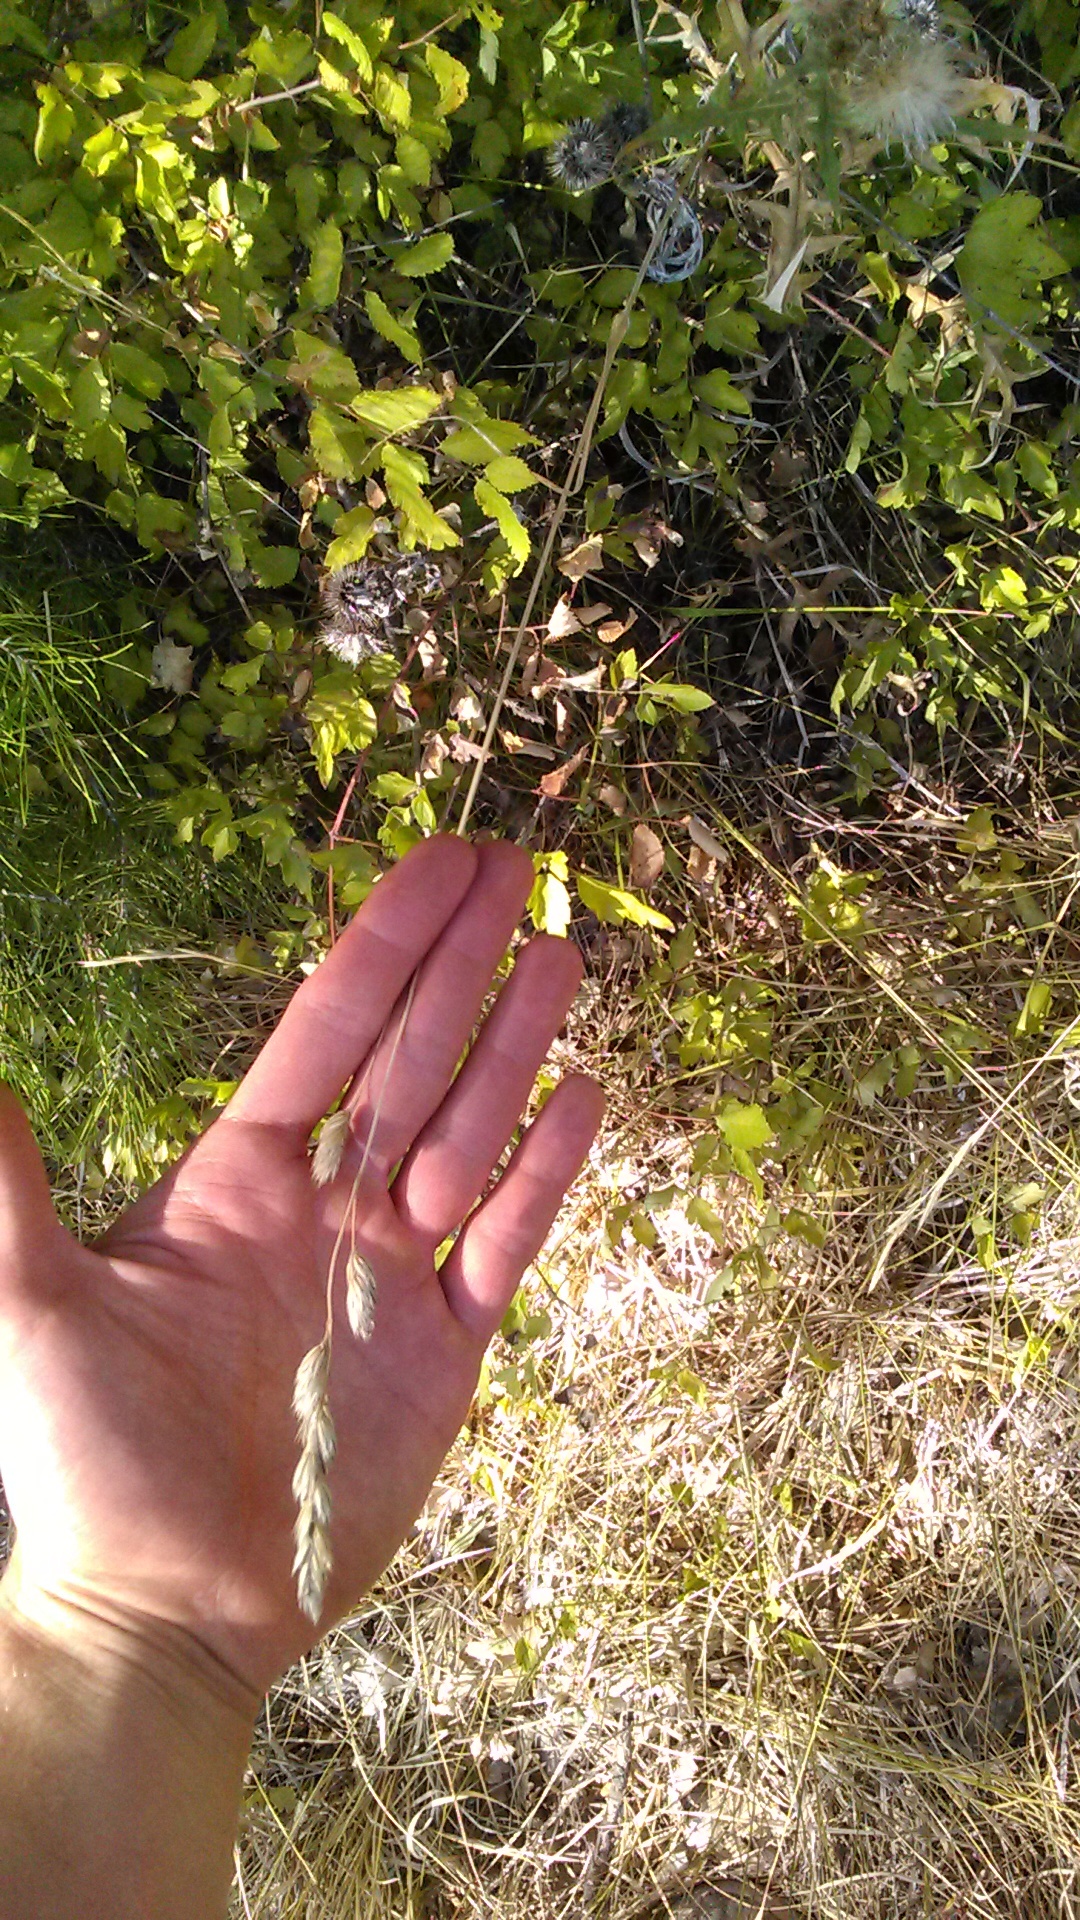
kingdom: Plantae
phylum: Tracheophyta
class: Liliopsida
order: Poales
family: Poaceae
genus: Dactylis
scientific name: Dactylis glomerata
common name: Orchardgrass
